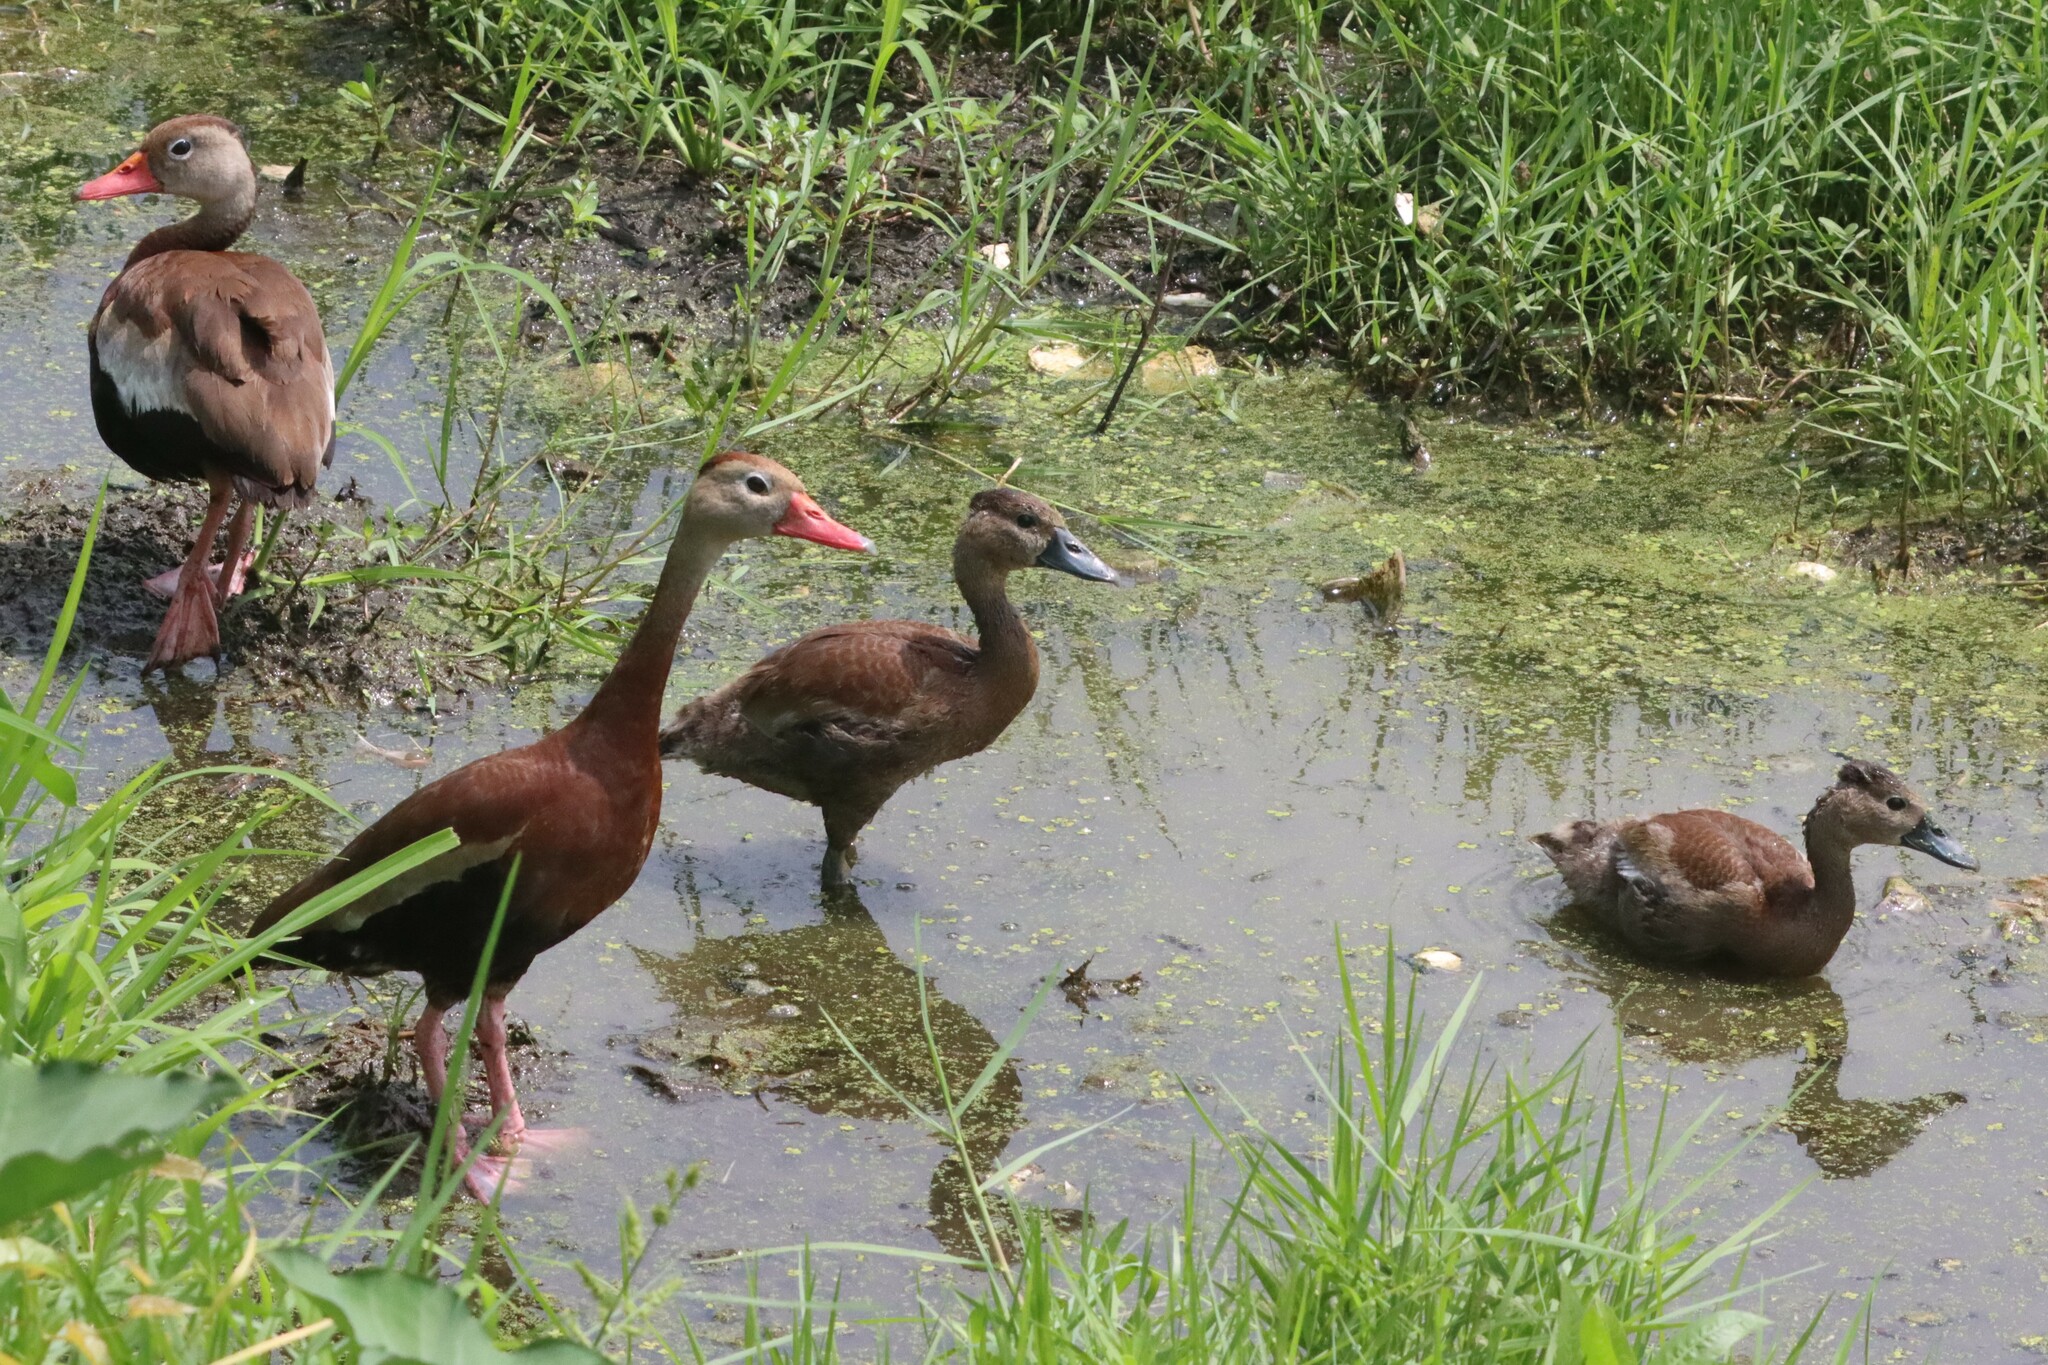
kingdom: Animalia
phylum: Chordata
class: Aves
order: Anseriformes
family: Anatidae
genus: Dendrocygna
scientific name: Dendrocygna autumnalis
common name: Black-bellied whistling duck
